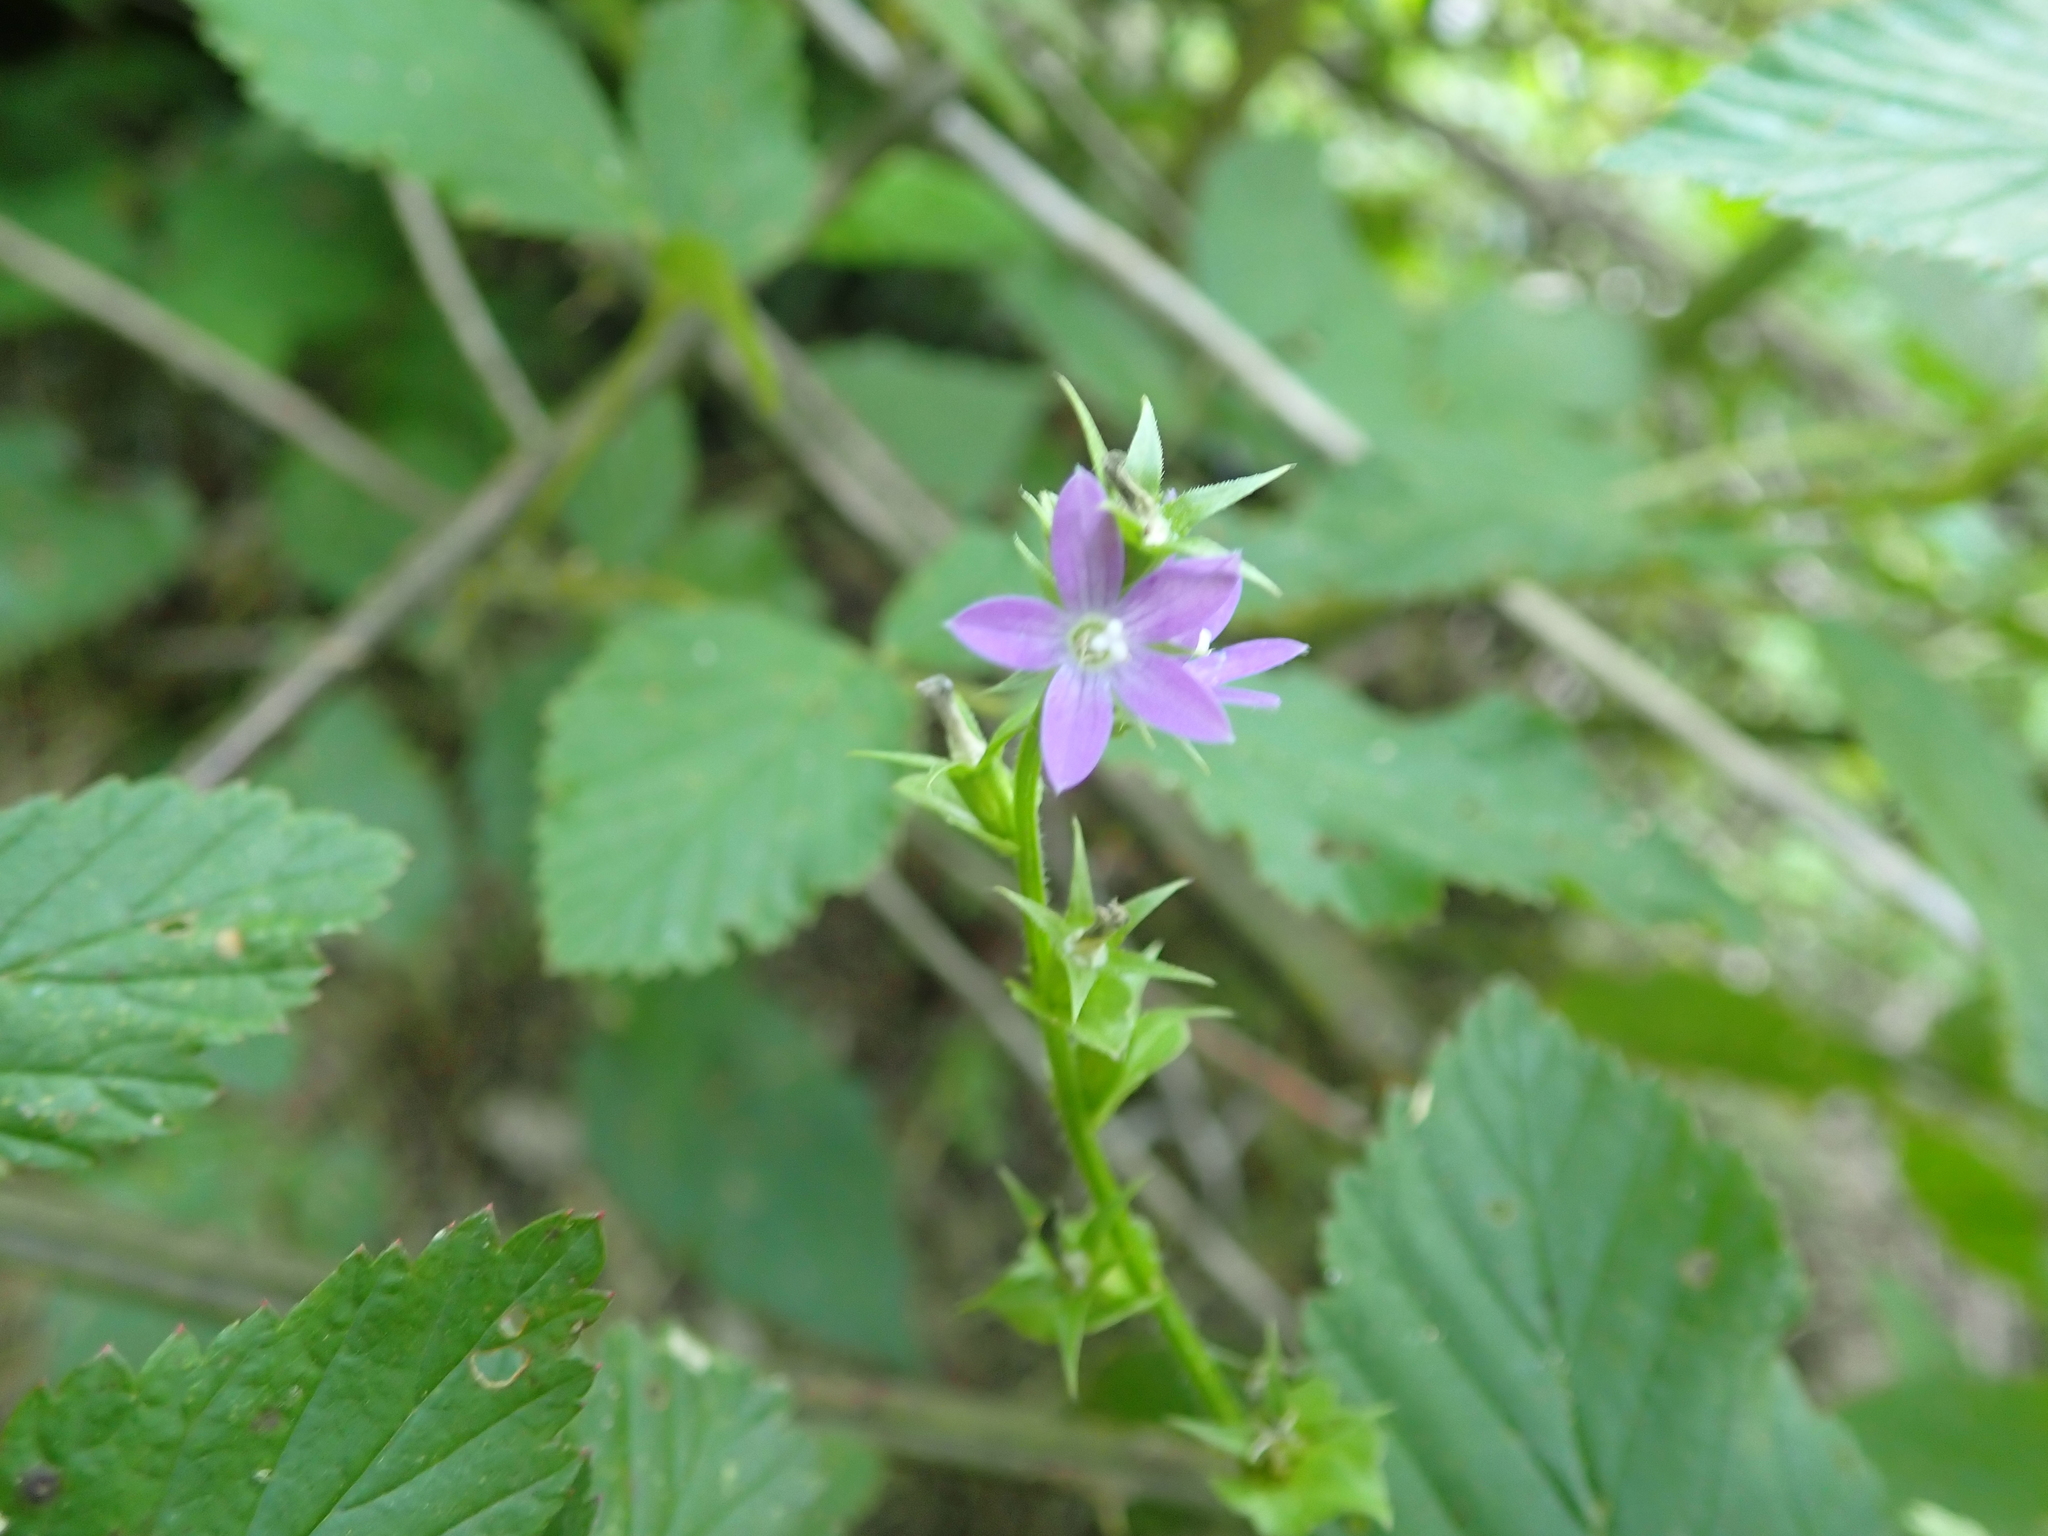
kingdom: Plantae
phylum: Tracheophyta
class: Magnoliopsida
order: Asterales
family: Campanulaceae
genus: Triodanis
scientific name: Triodanis perfoliata
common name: Clasping venus' looking-glass
